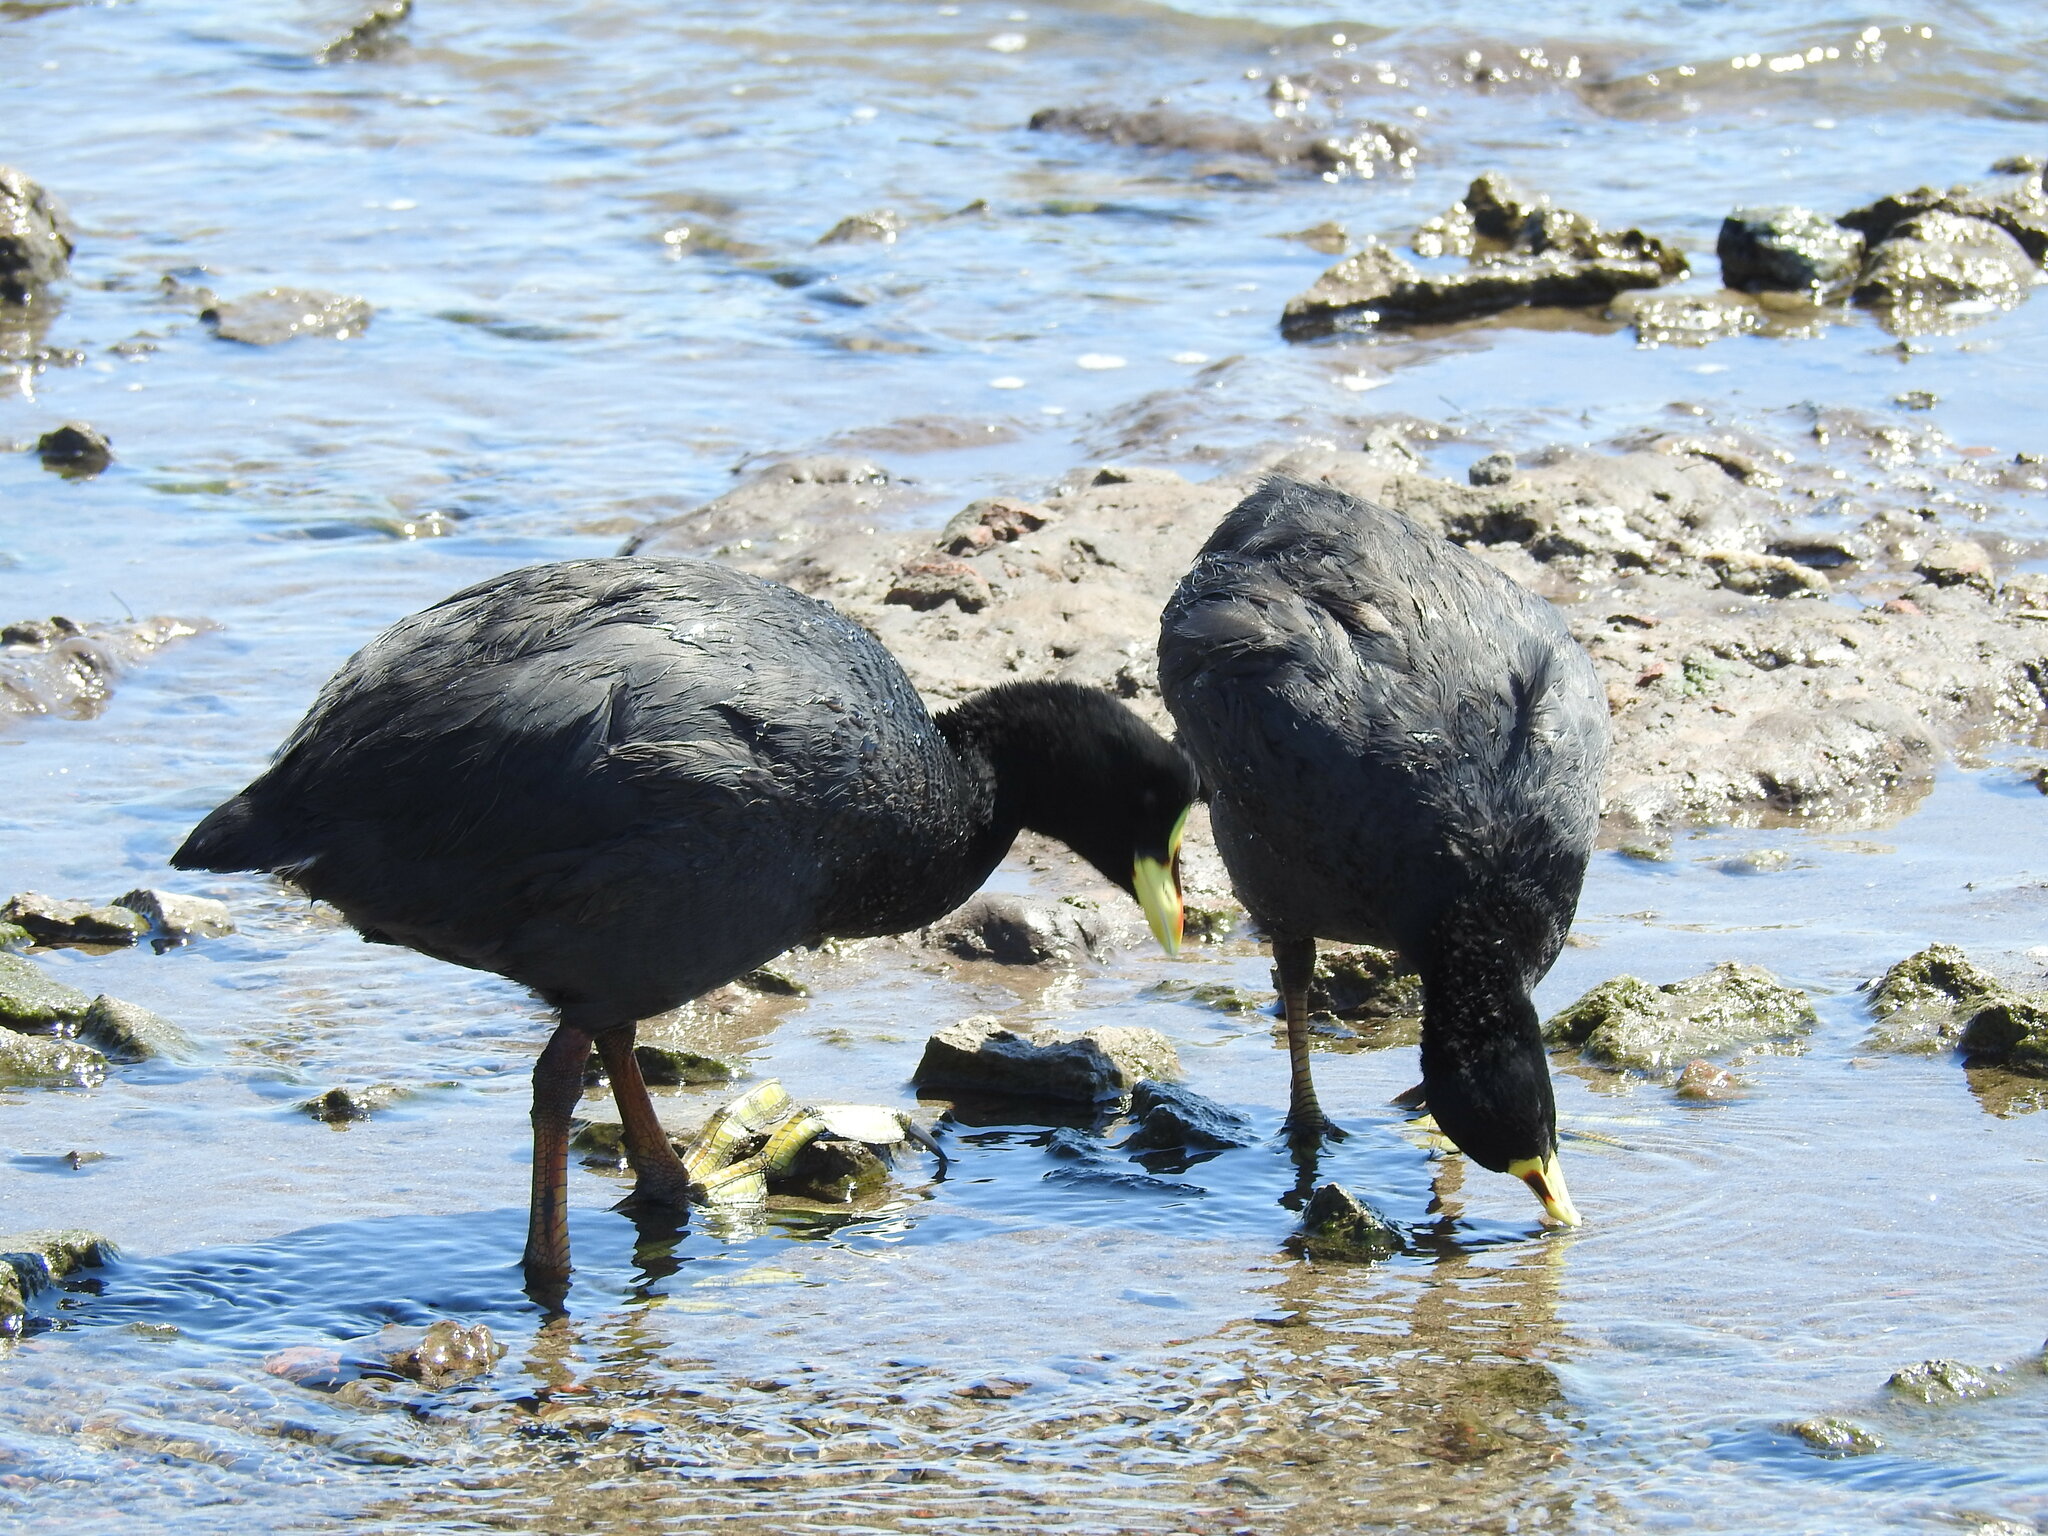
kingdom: Animalia
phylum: Chordata
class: Aves
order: Gruiformes
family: Rallidae
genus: Fulica
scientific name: Fulica armillata
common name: Red-gartered coot
